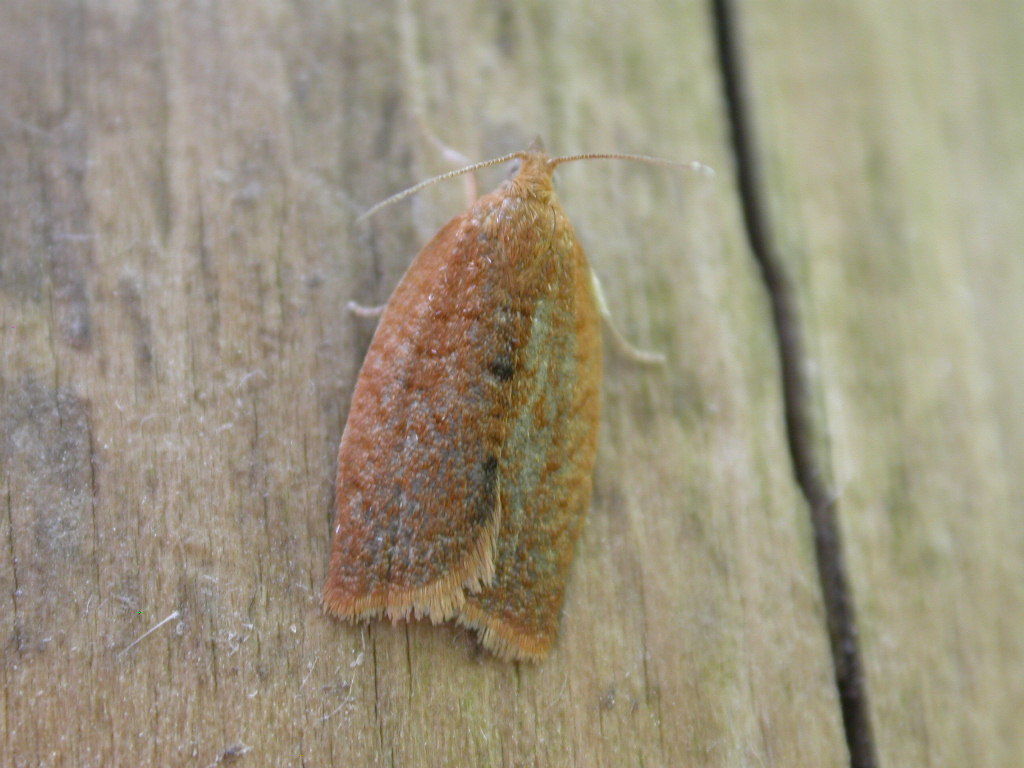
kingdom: Animalia
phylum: Arthropoda
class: Insecta
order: Lepidoptera
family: Tortricidae
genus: Clepsis
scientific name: Clepsis consimilana
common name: Privet tortrix
